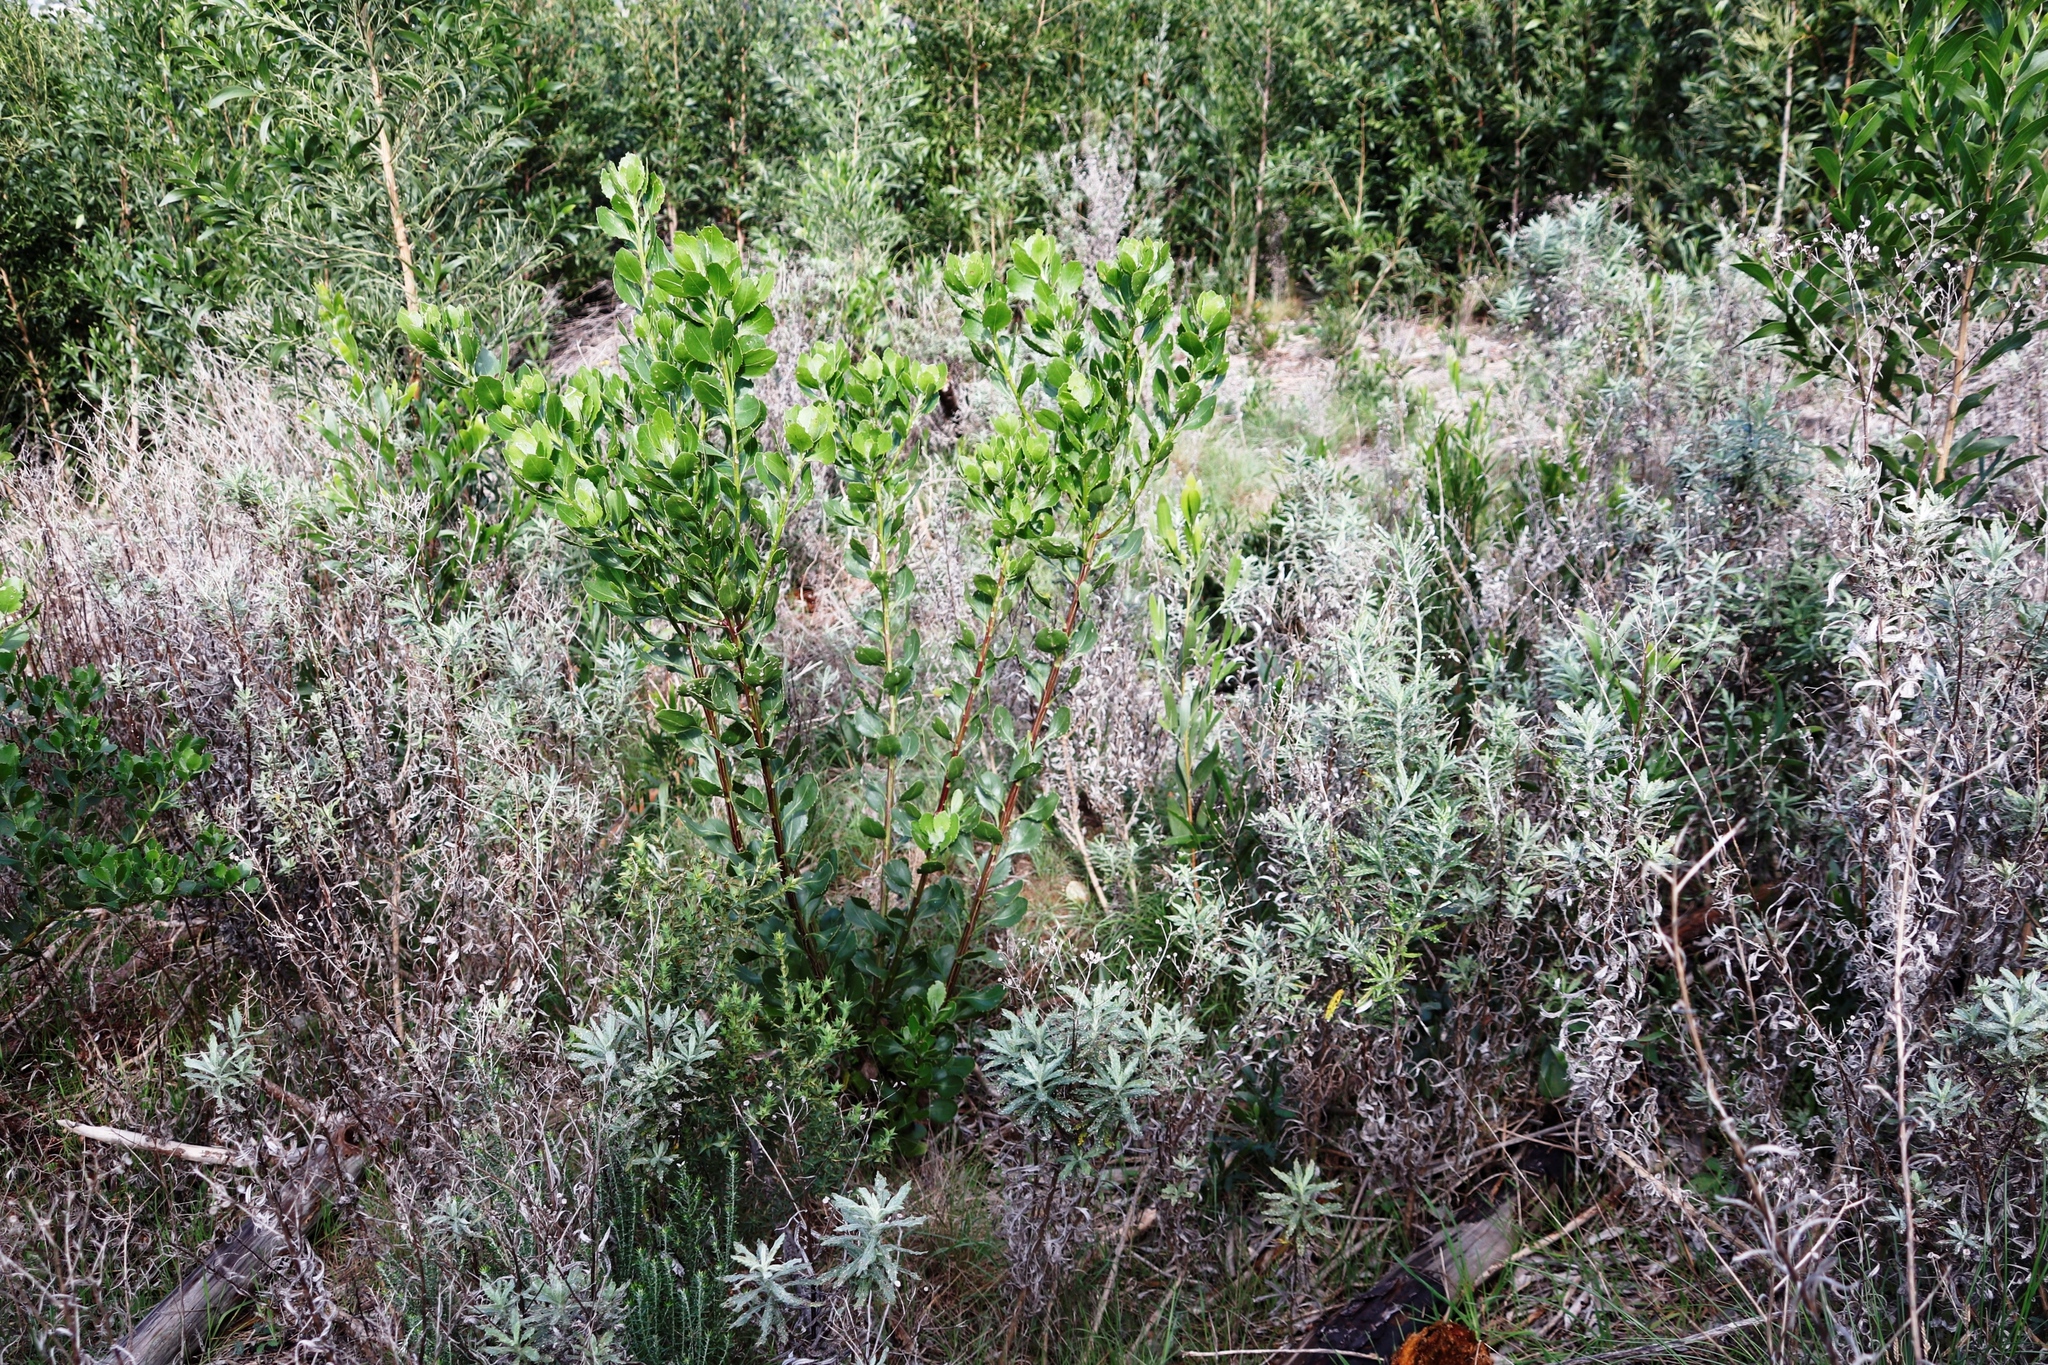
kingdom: Plantae
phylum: Tracheophyta
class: Magnoliopsida
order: Asterales
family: Asteraceae
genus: Osteospermum
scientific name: Osteospermum moniliferum
